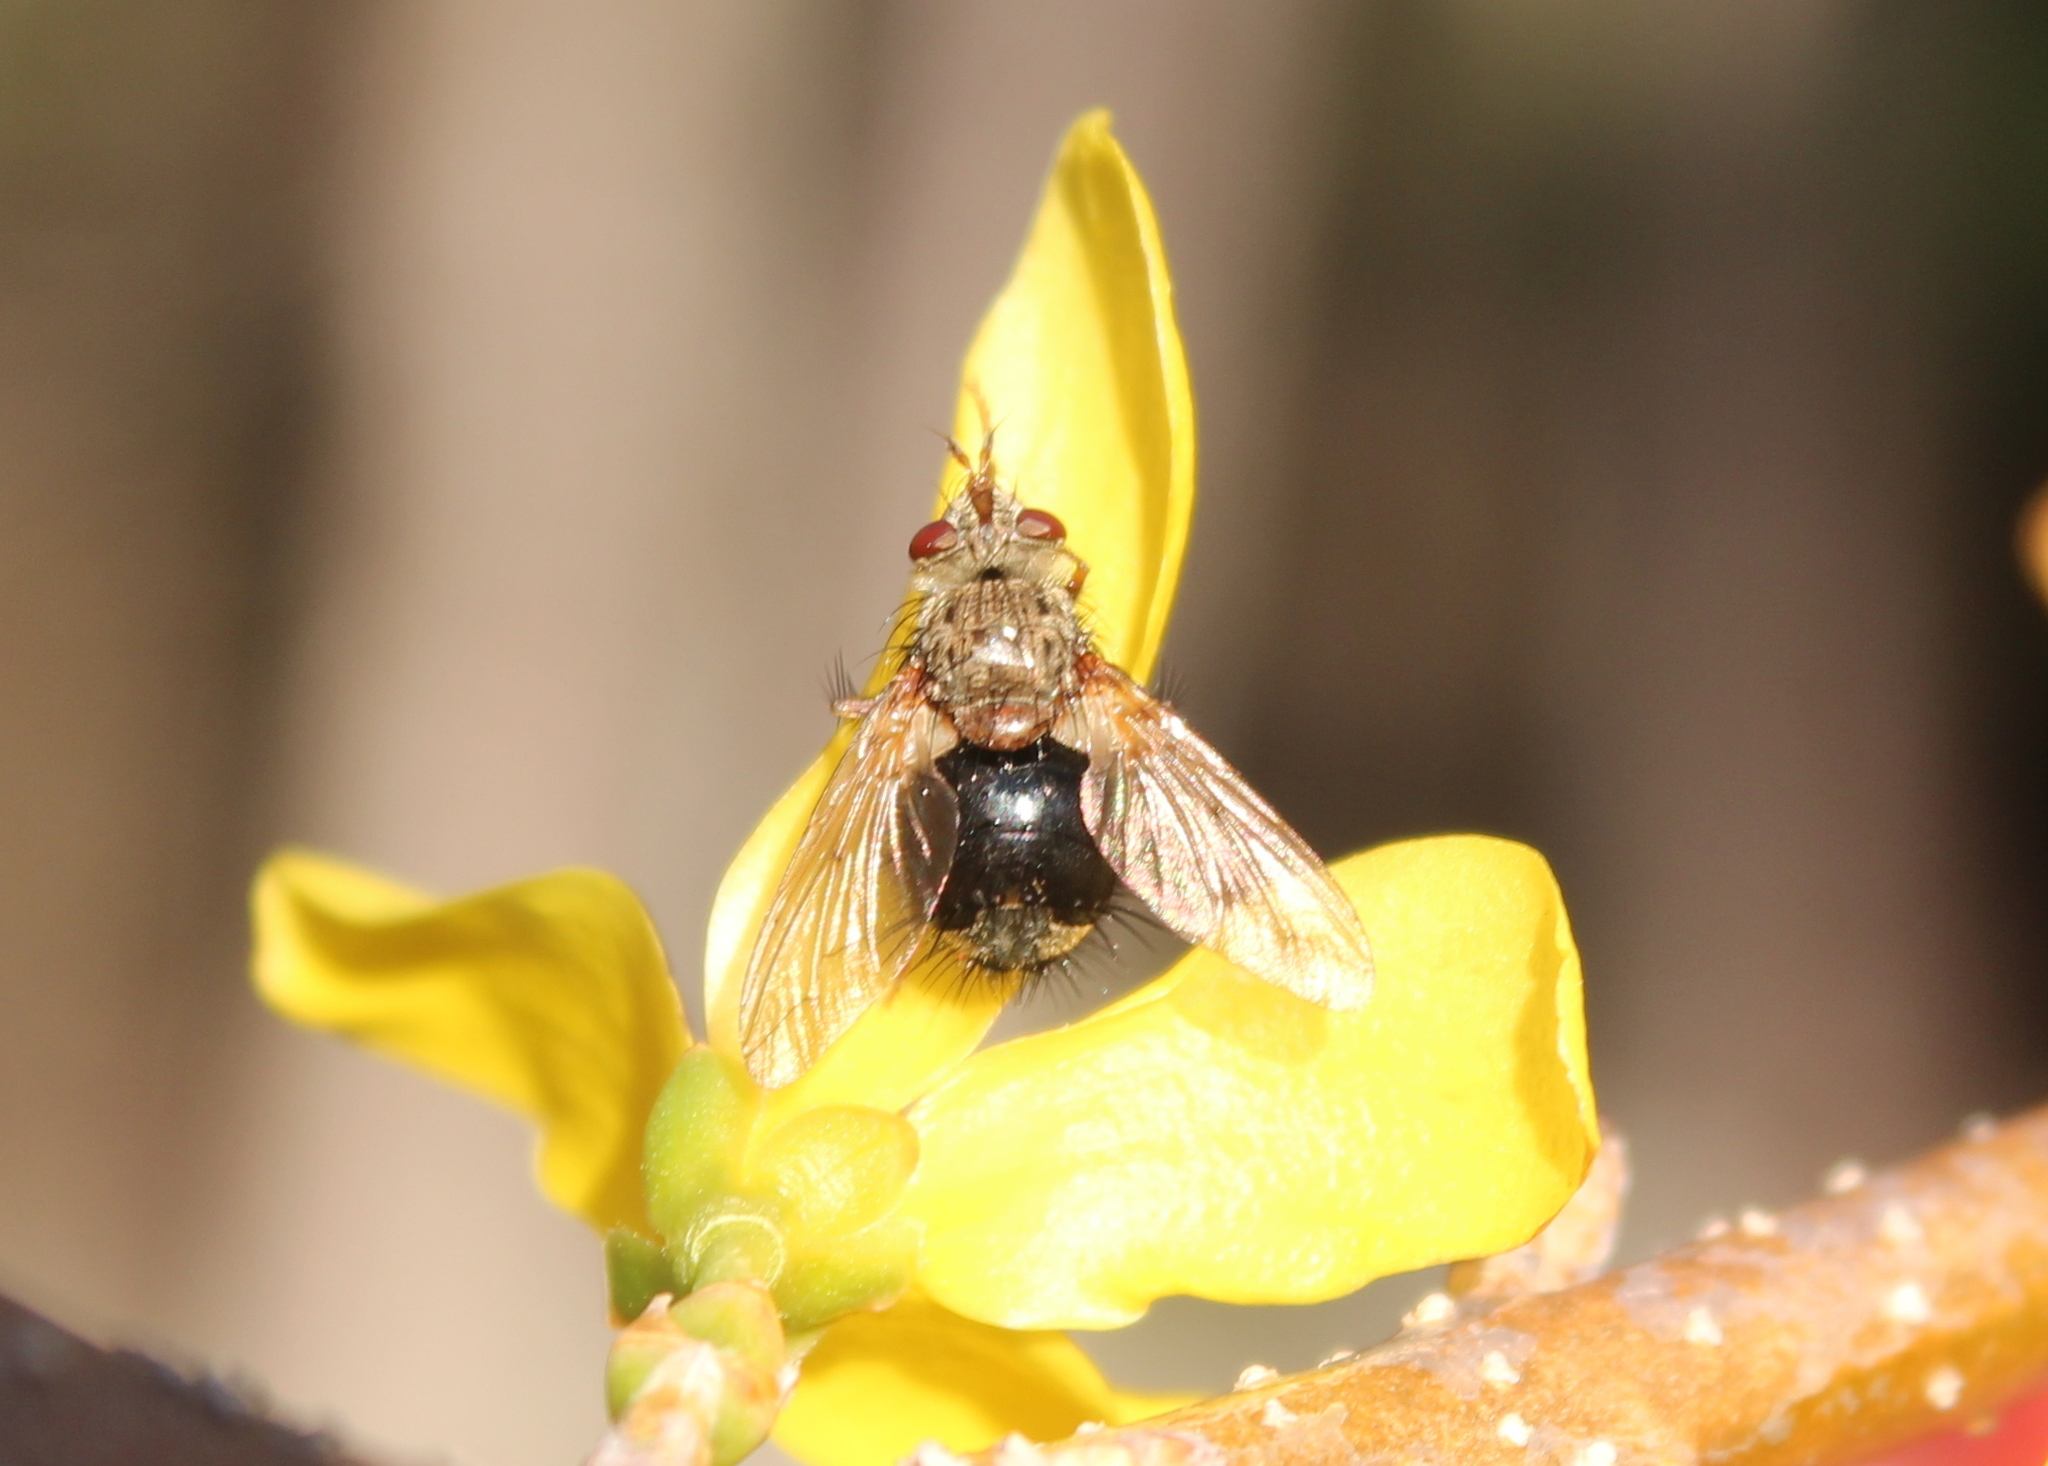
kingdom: Animalia
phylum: Arthropoda
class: Insecta
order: Diptera
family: Tachinidae
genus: Epalpus
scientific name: Epalpus signifer
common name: Early tachinid fly
